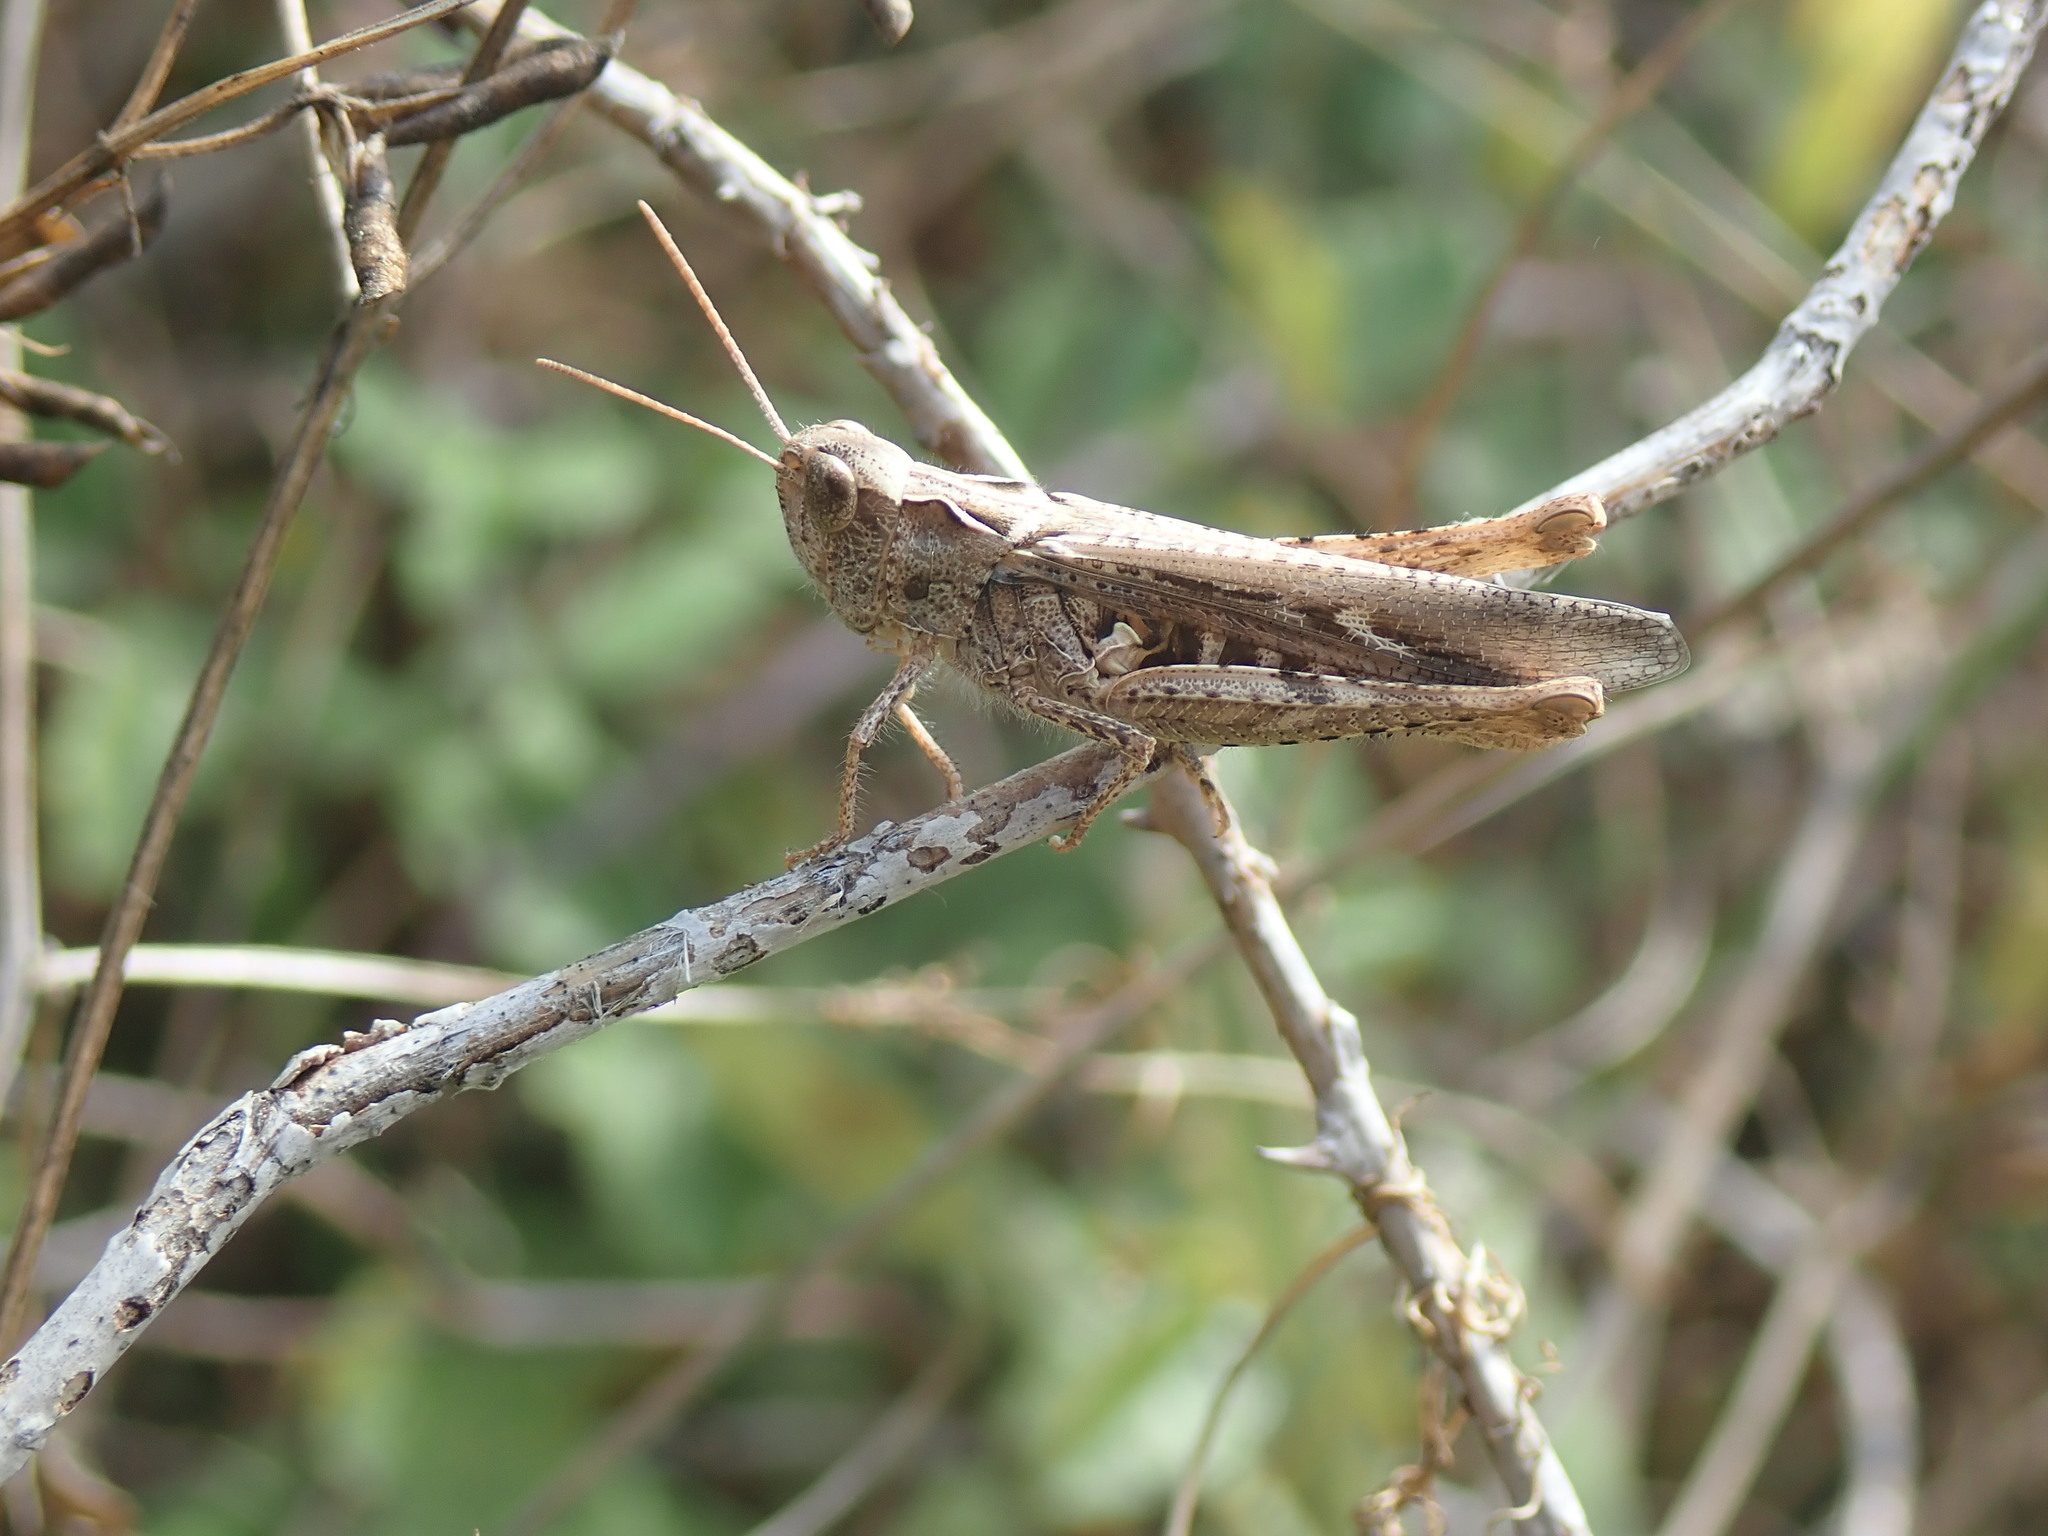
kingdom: Animalia
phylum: Arthropoda
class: Insecta
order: Orthoptera
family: Acrididae
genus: Chorthippus
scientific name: Chorthippus mollis
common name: Lesser field grasshopper
